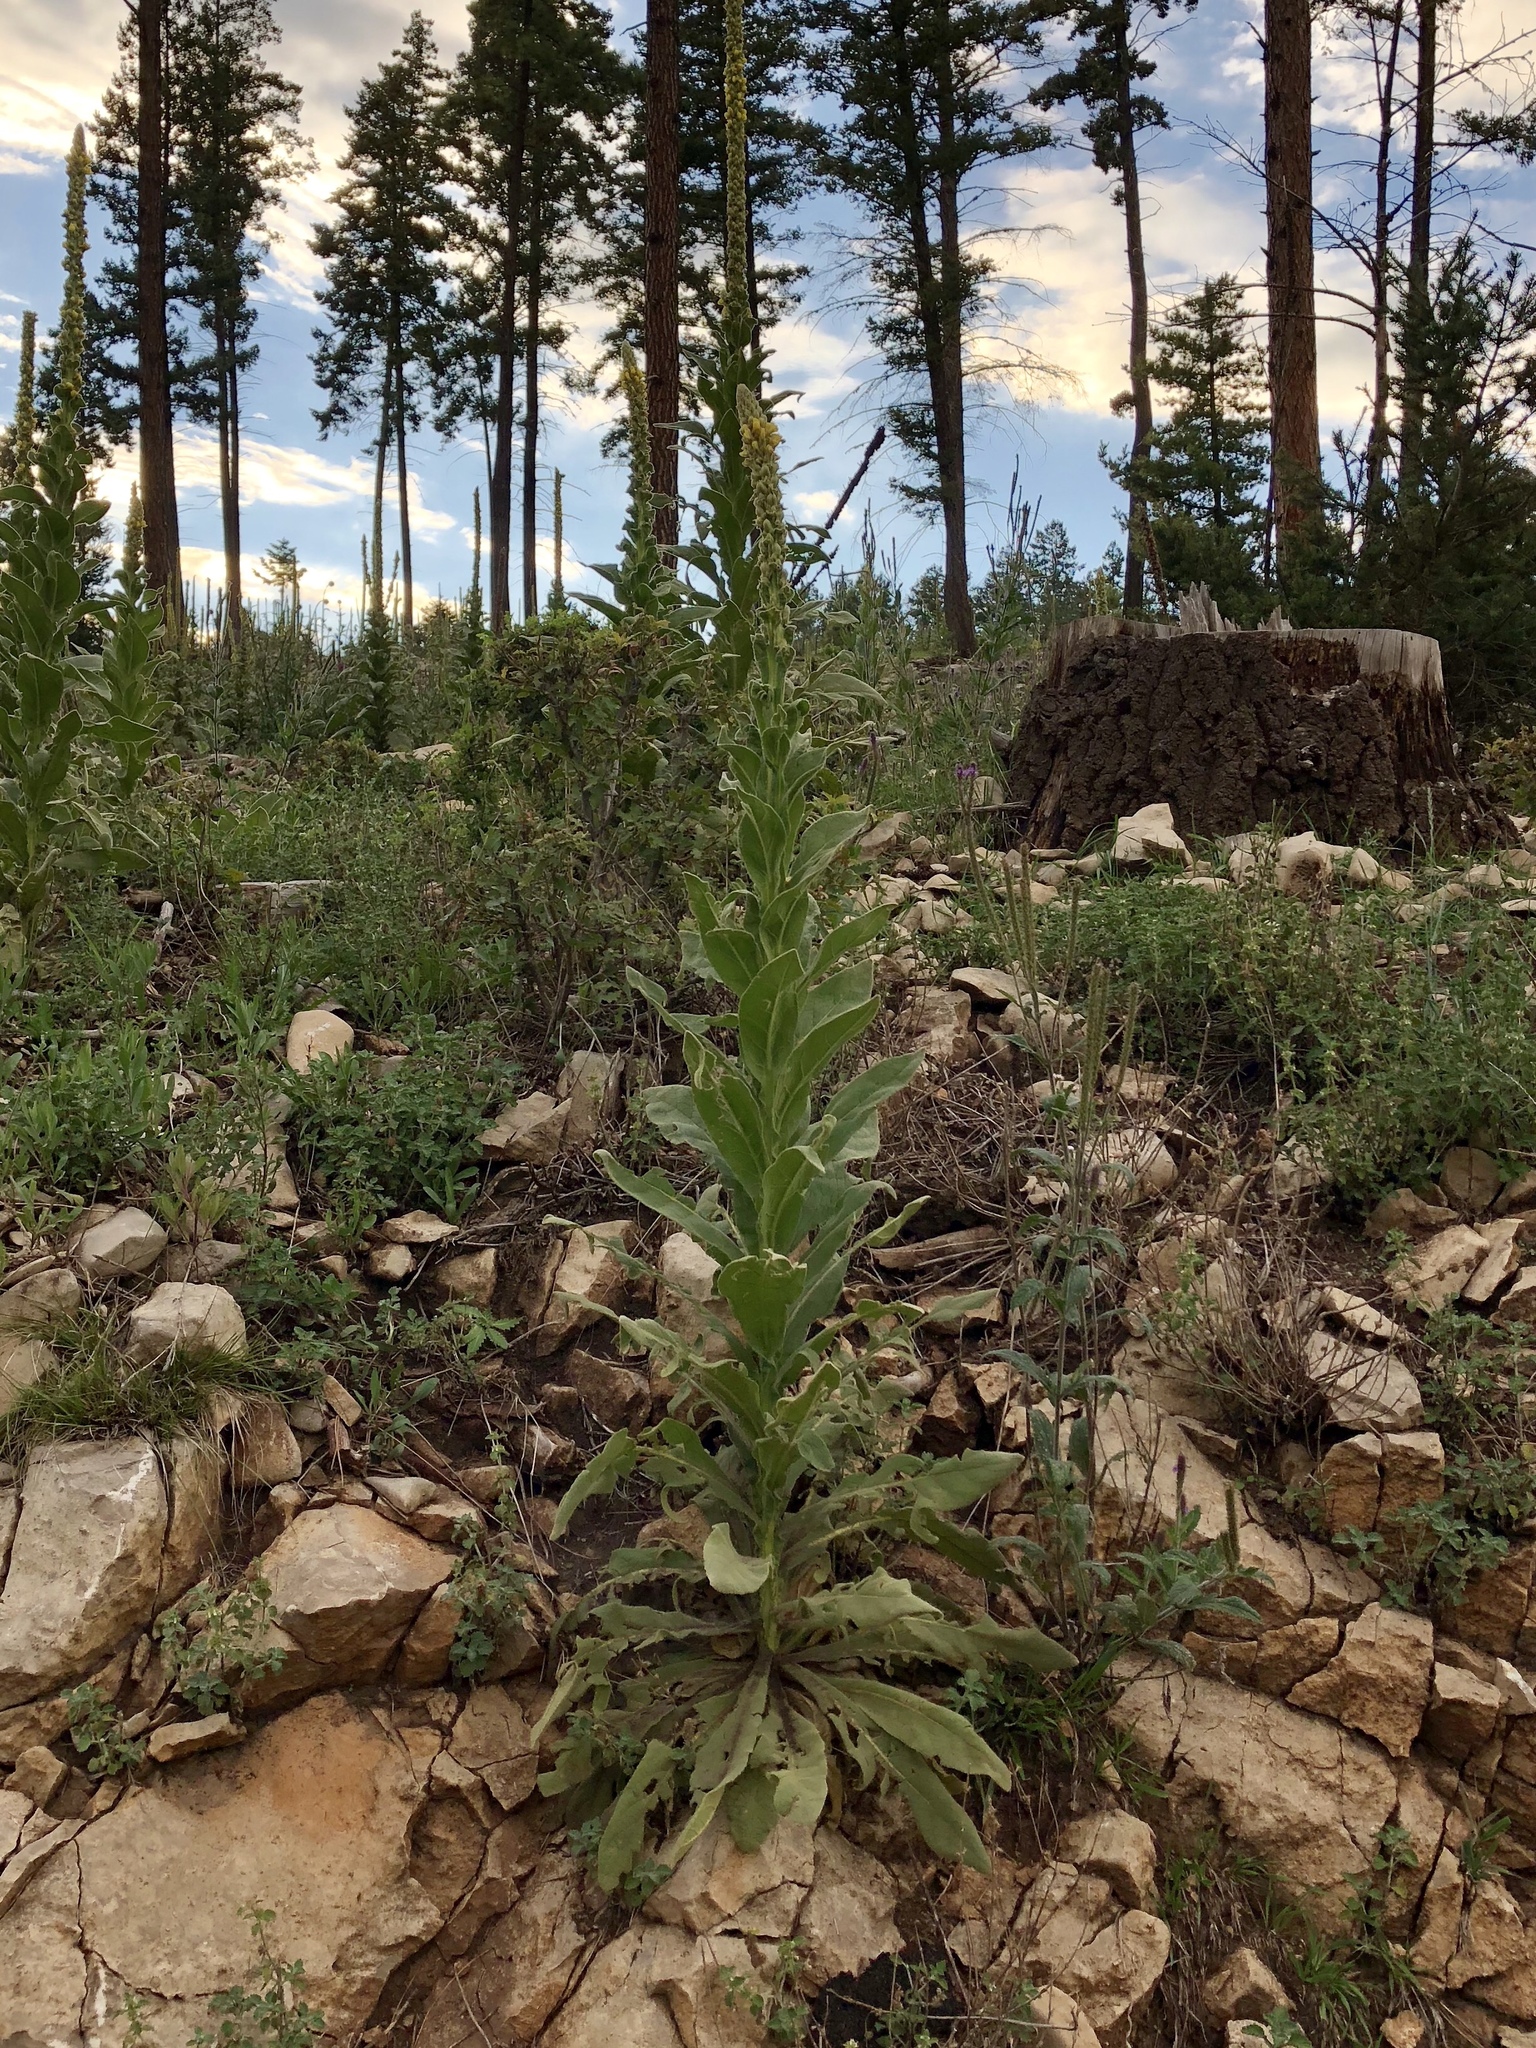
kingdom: Plantae
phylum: Tracheophyta
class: Magnoliopsida
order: Lamiales
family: Scrophulariaceae
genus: Verbascum
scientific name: Verbascum thapsus
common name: Common mullein
